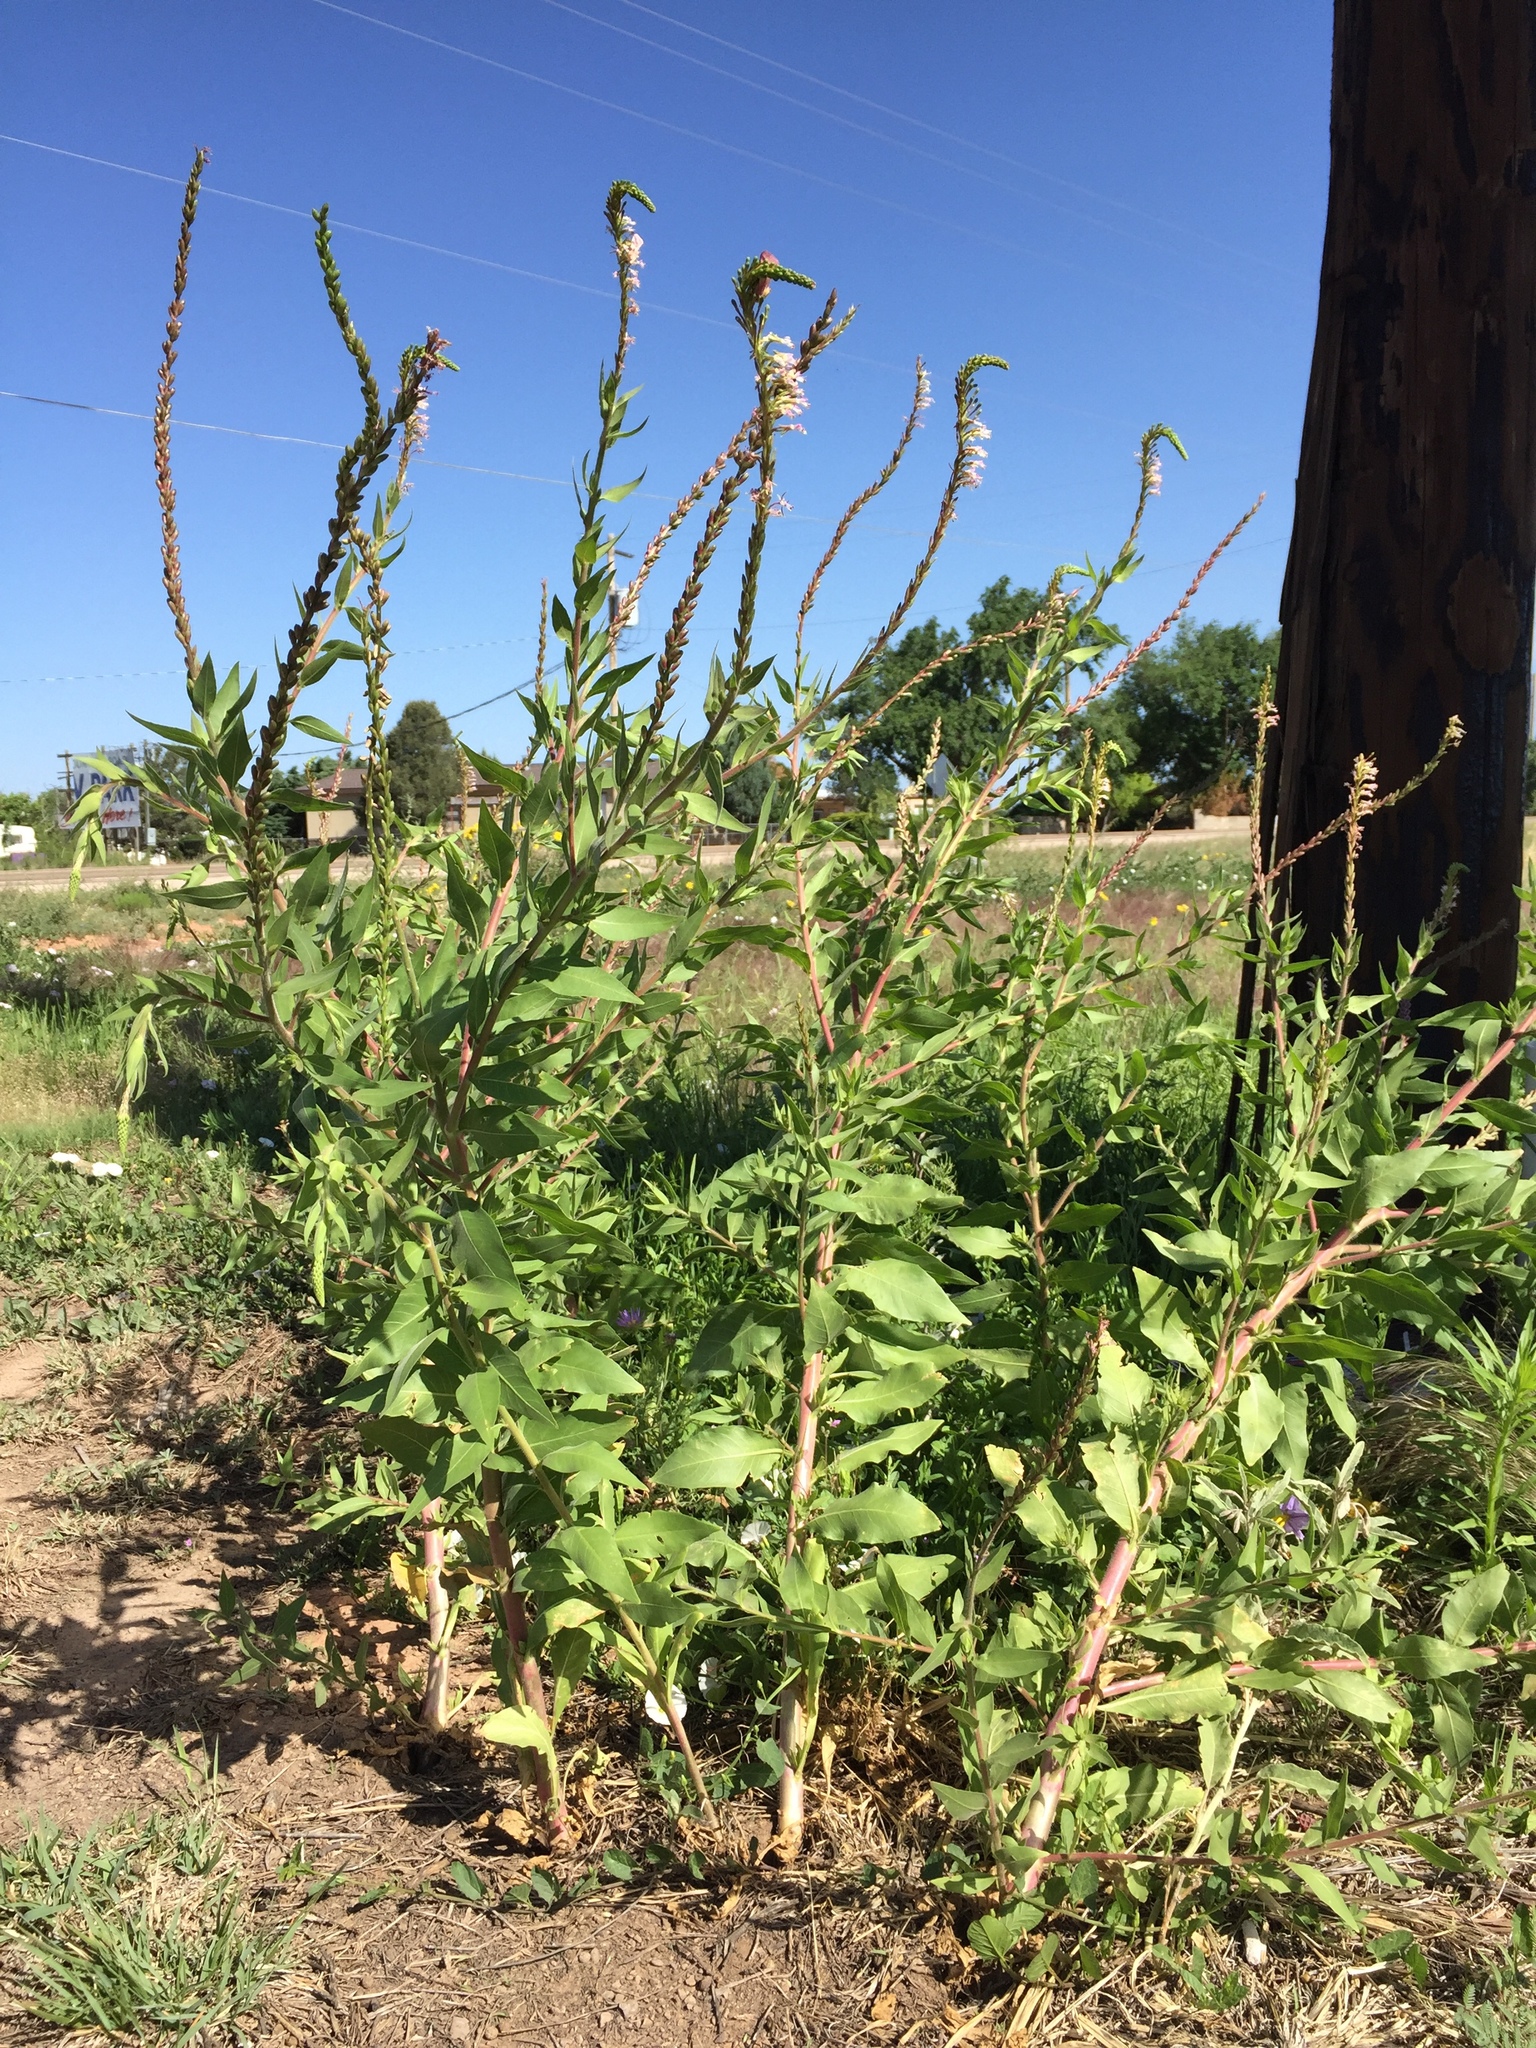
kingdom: Plantae
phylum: Tracheophyta
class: Magnoliopsida
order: Myrtales
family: Onagraceae
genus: Oenothera
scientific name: Oenothera curtiflora
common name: Velvetweed
